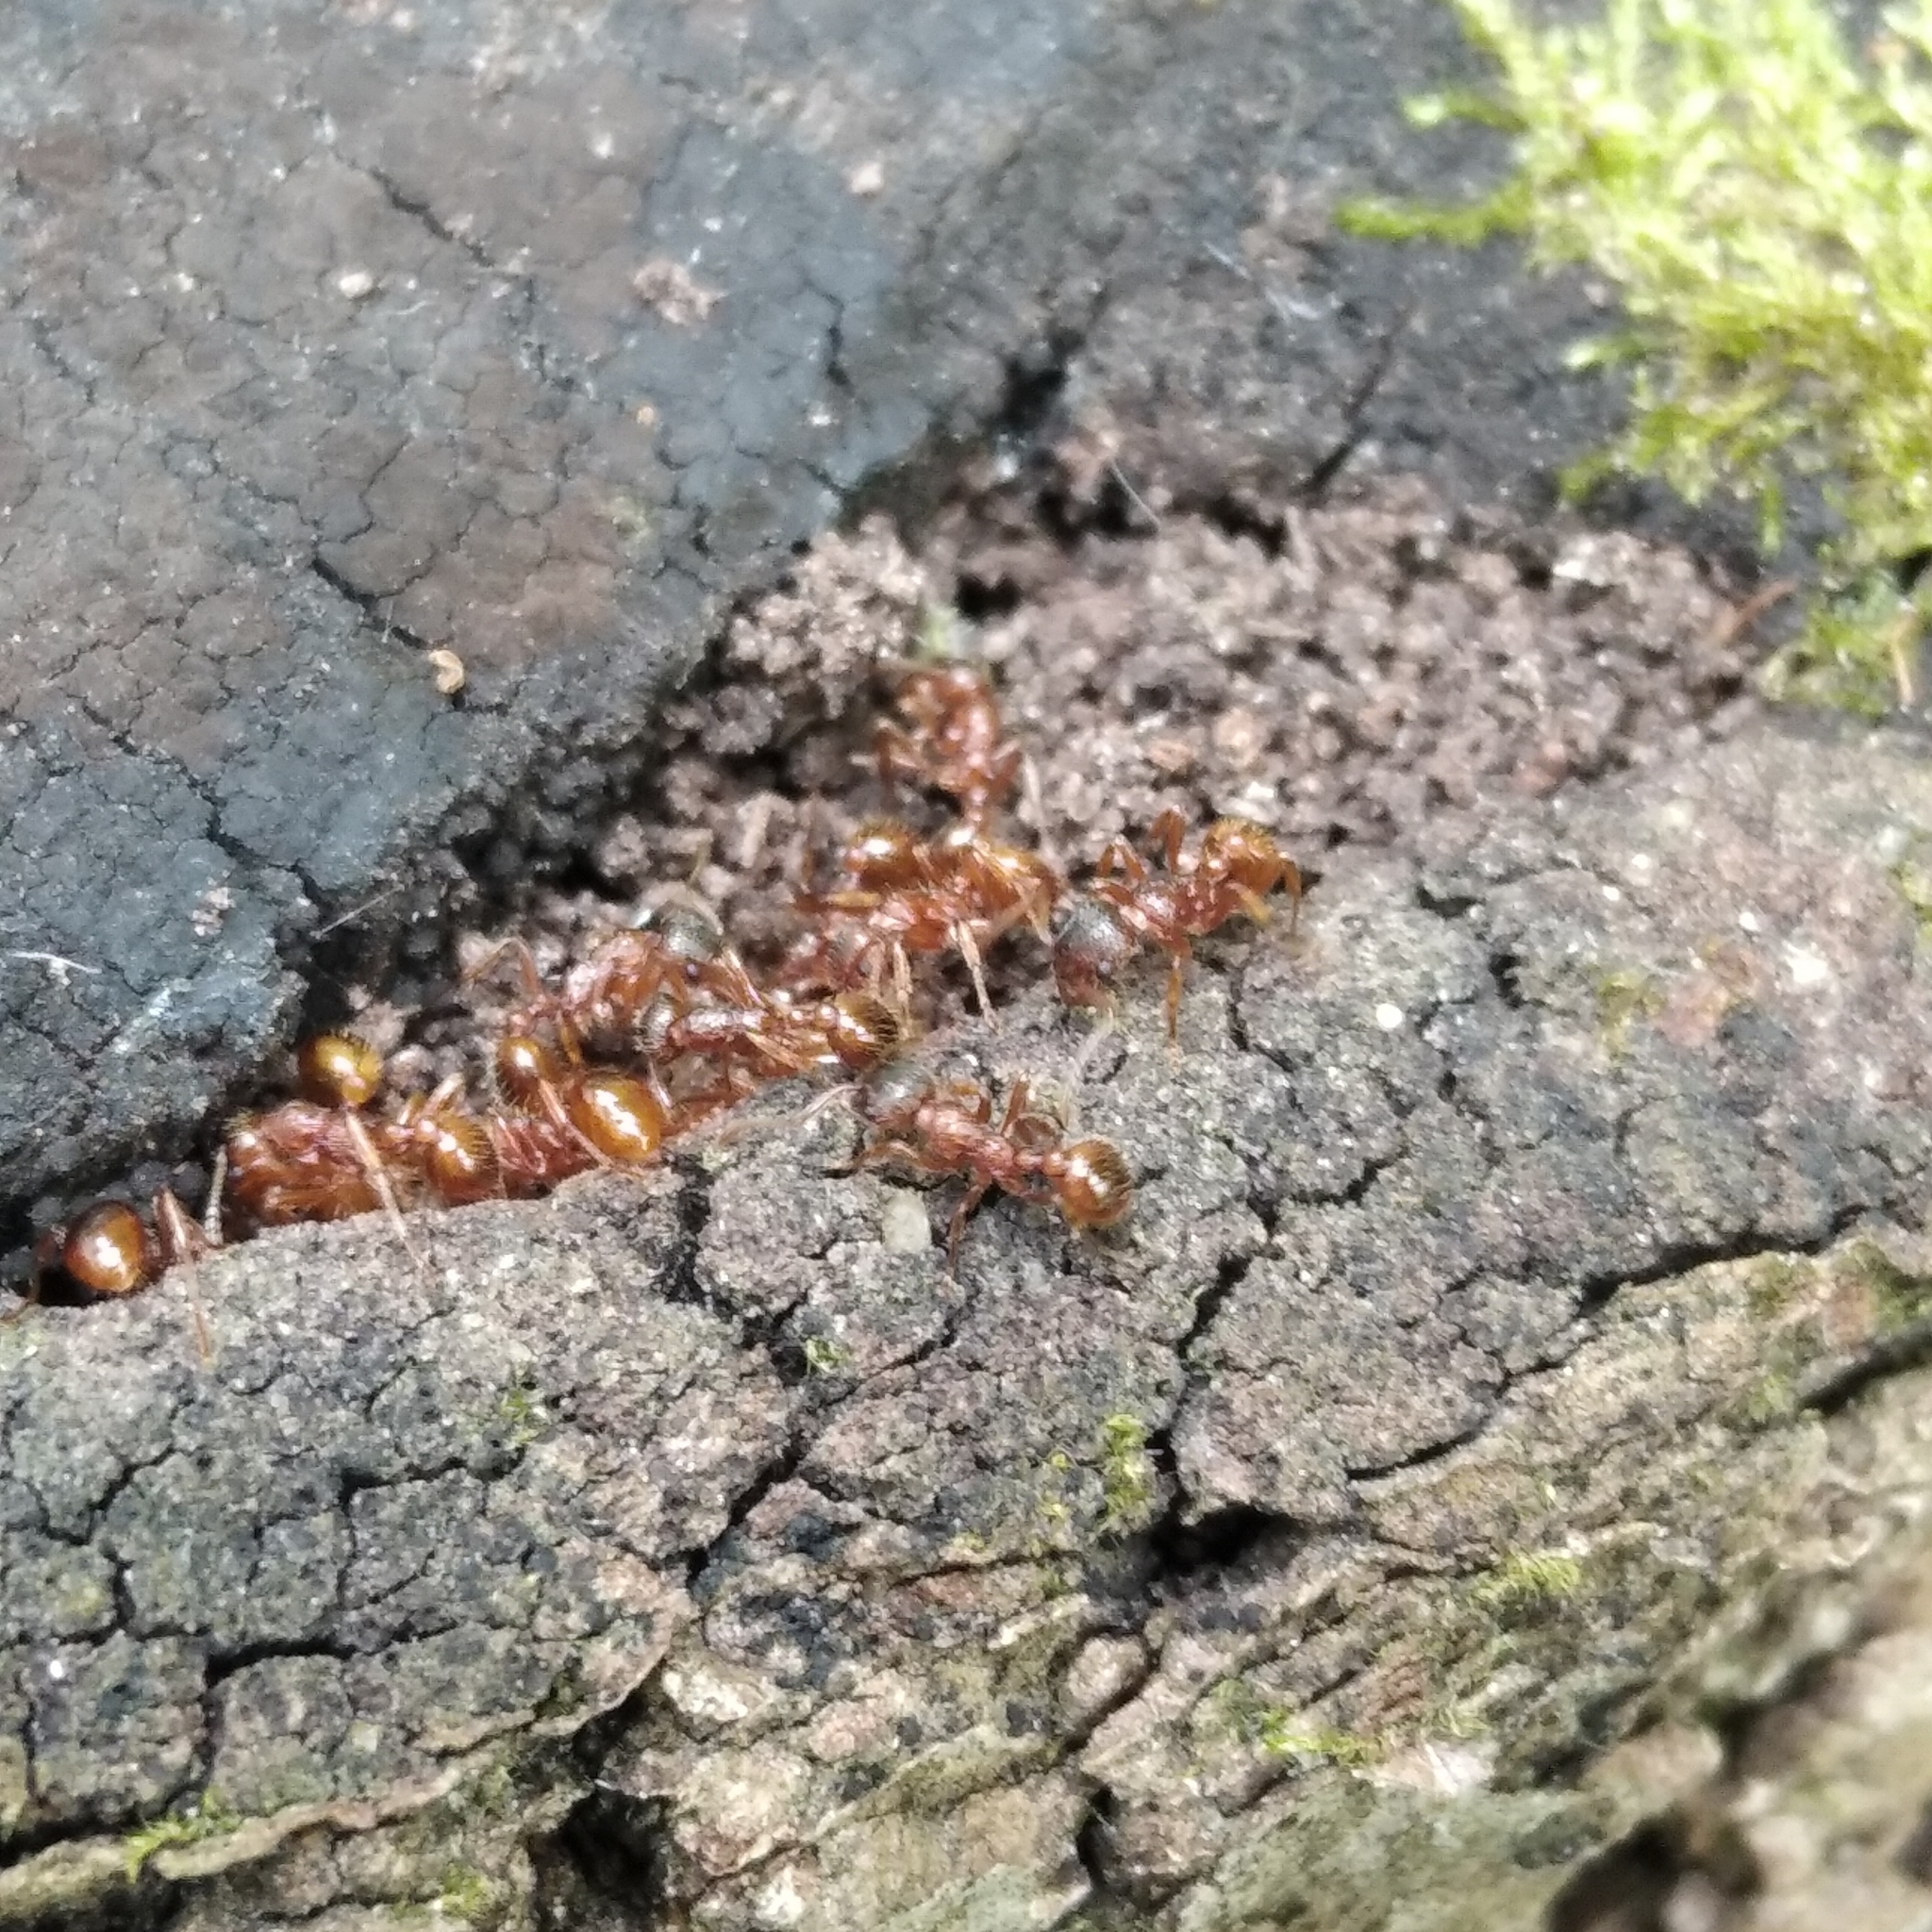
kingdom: Animalia
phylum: Arthropoda
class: Insecta
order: Hymenoptera
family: Formicidae
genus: Myrmica
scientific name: Myrmica
